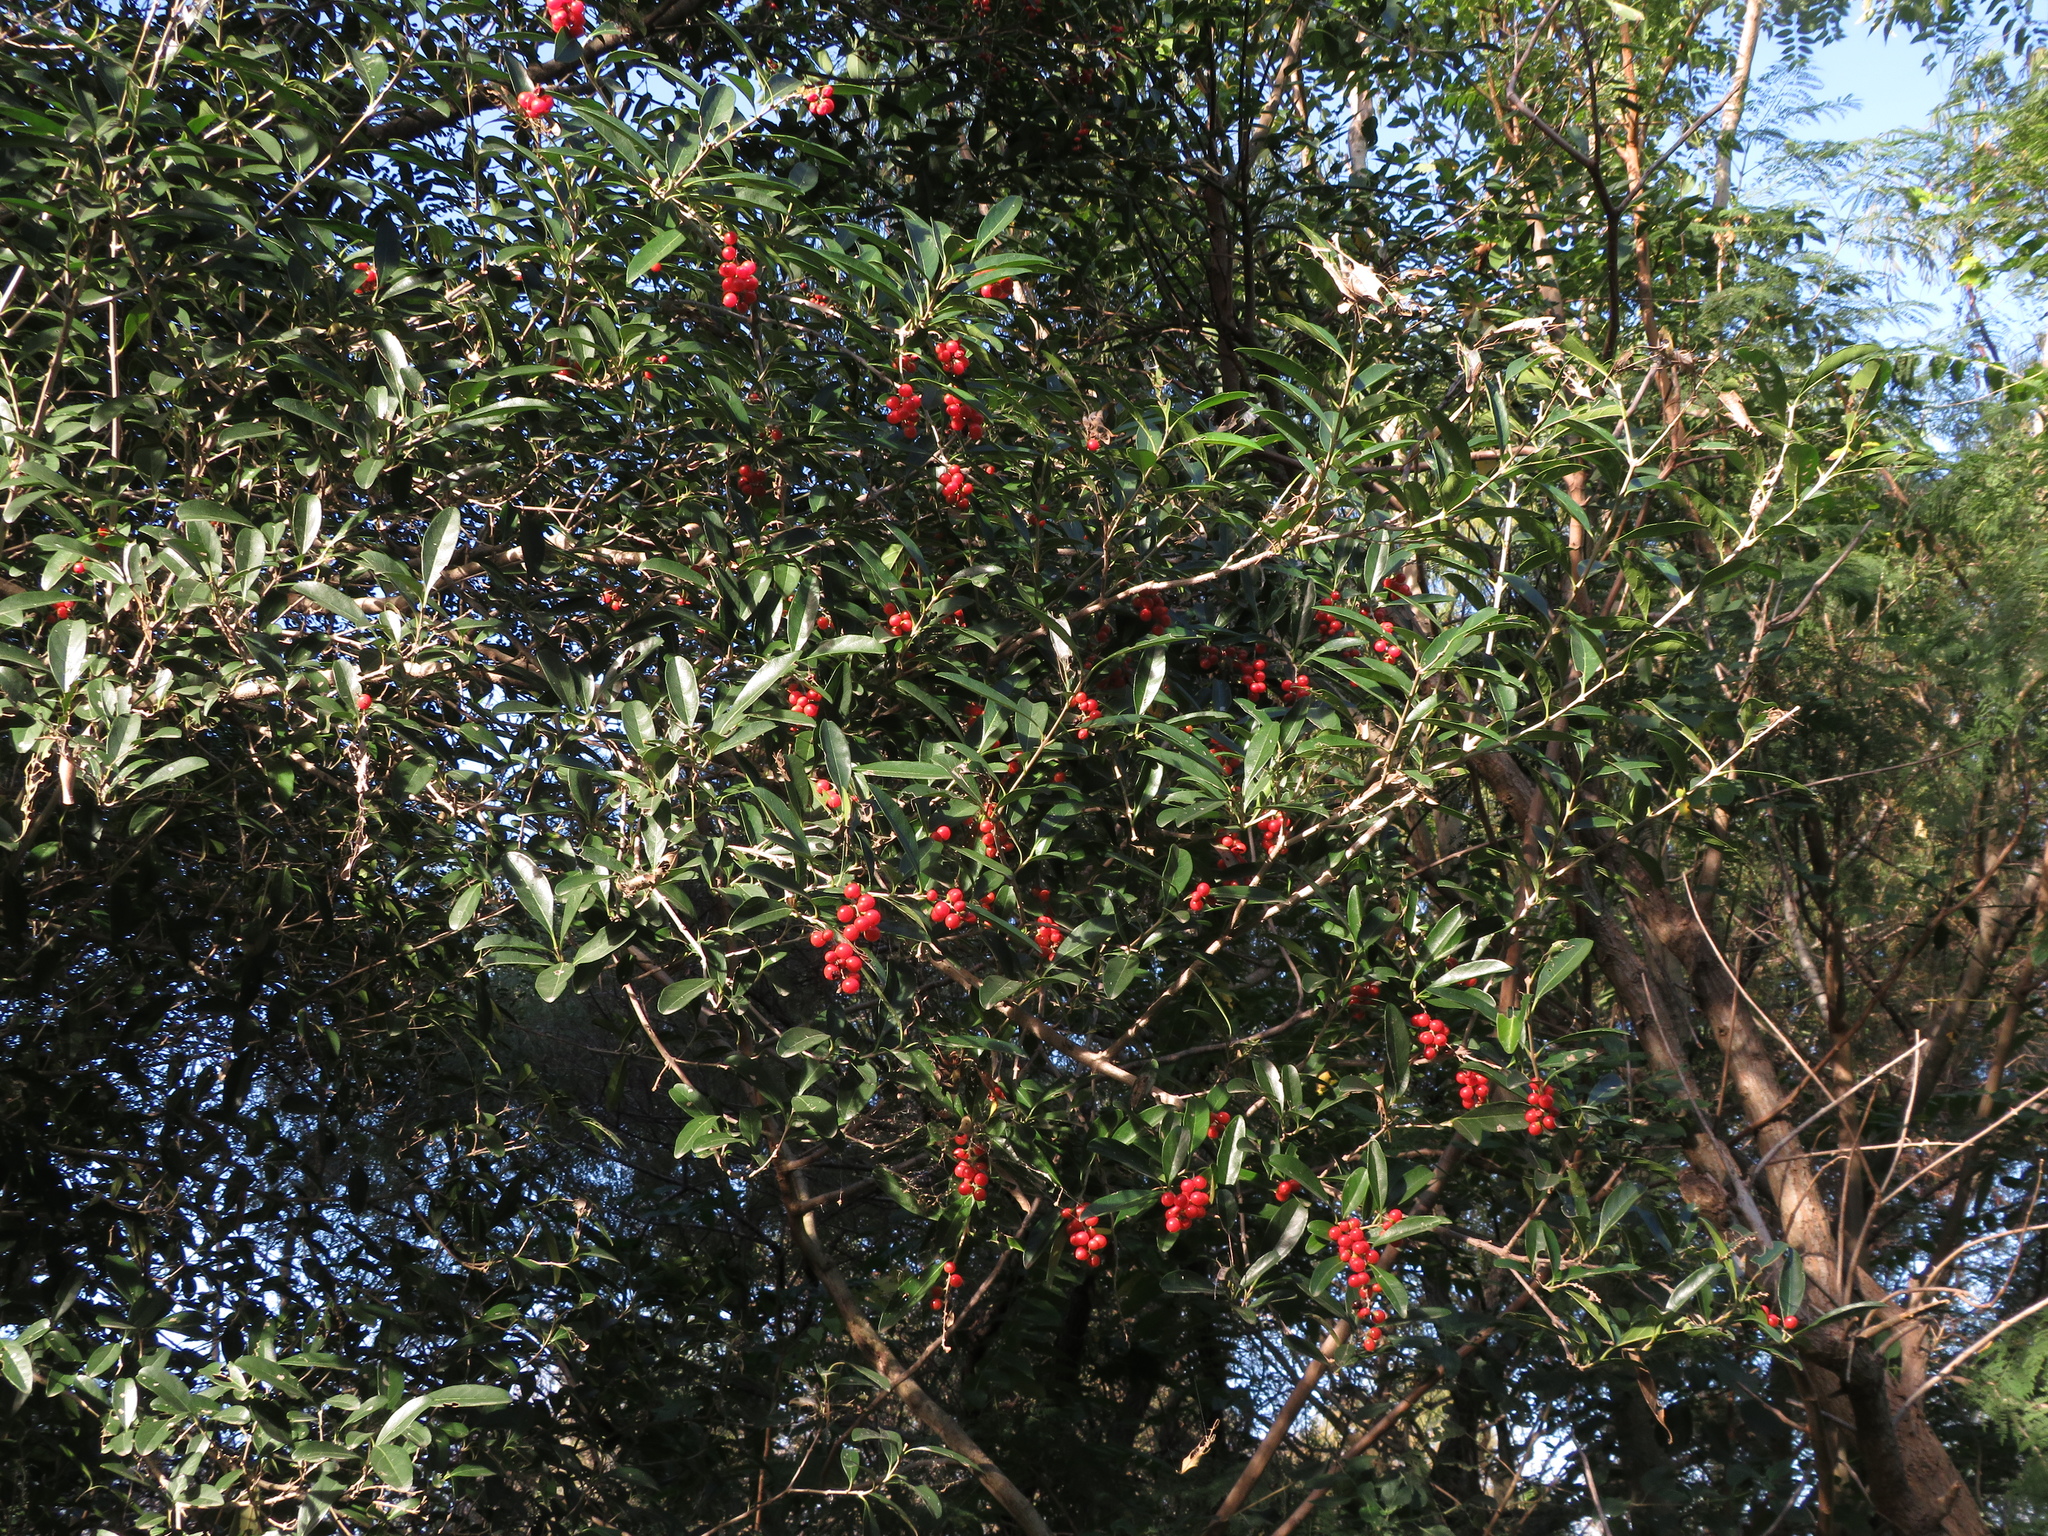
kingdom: Plantae
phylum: Tracheophyta
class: Magnoliopsida
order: Lamiales
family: Verbenaceae
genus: Citharexylum
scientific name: Citharexylum montevidense
